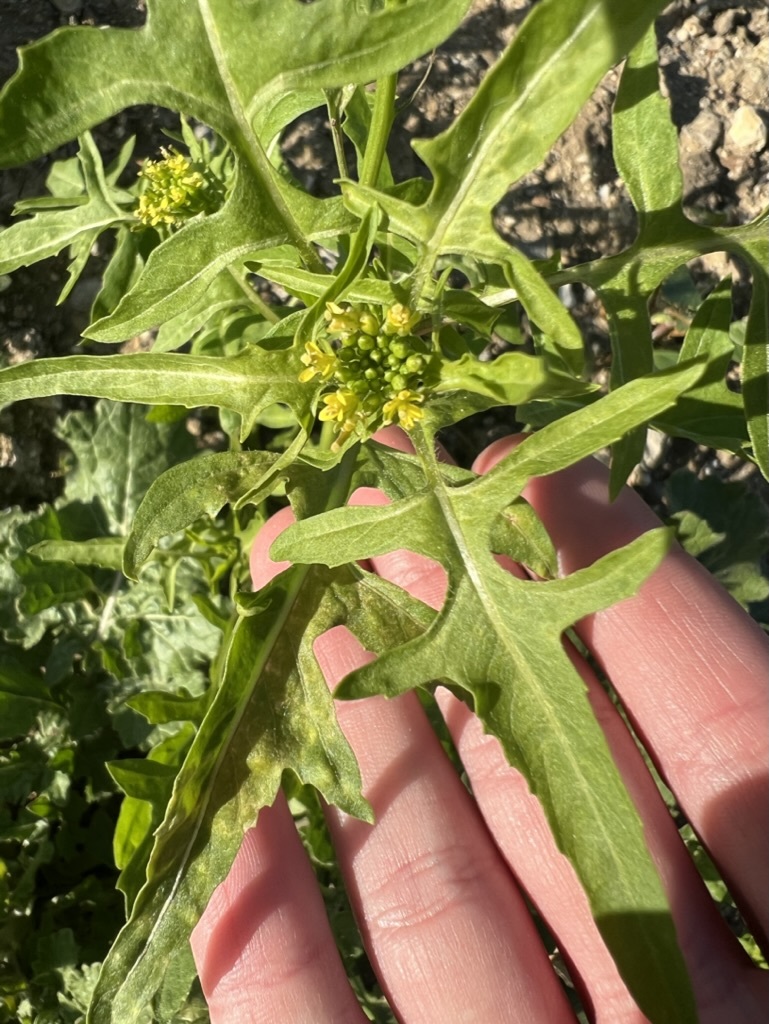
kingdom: Plantae
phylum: Tracheophyta
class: Magnoliopsida
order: Brassicales
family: Brassicaceae
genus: Sisymbrium
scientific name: Sisymbrium irio
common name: London rocket
